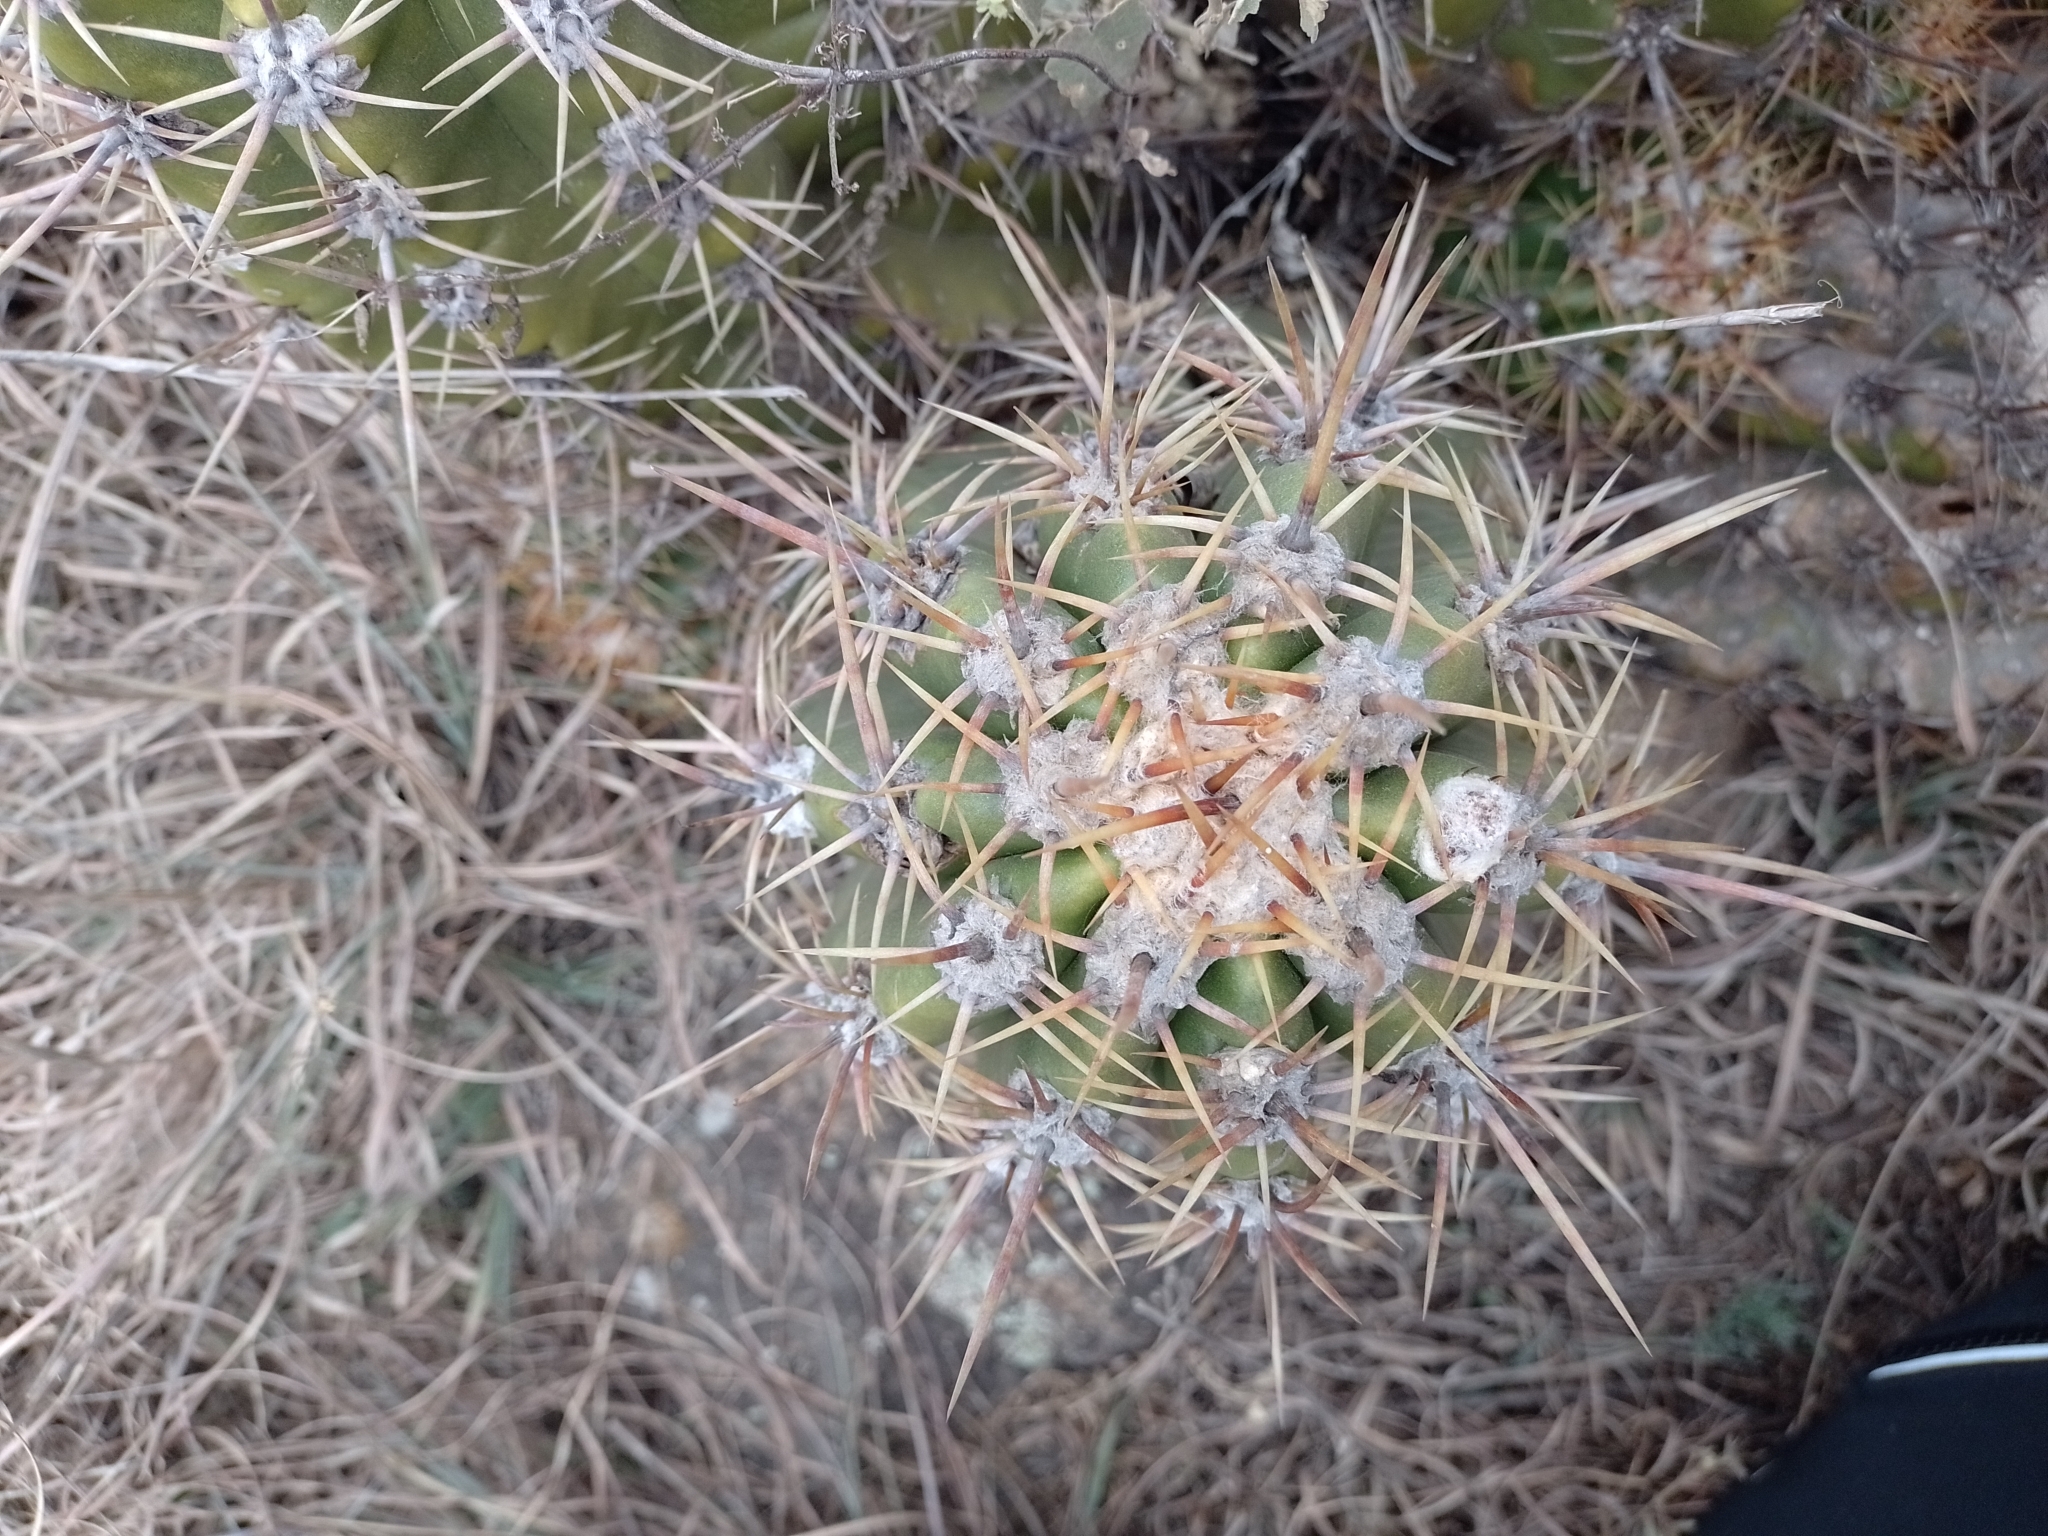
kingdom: Plantae
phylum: Tracheophyta
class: Magnoliopsida
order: Caryophyllales
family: Cactaceae
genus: Soehrensia
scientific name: Soehrensia candicans
